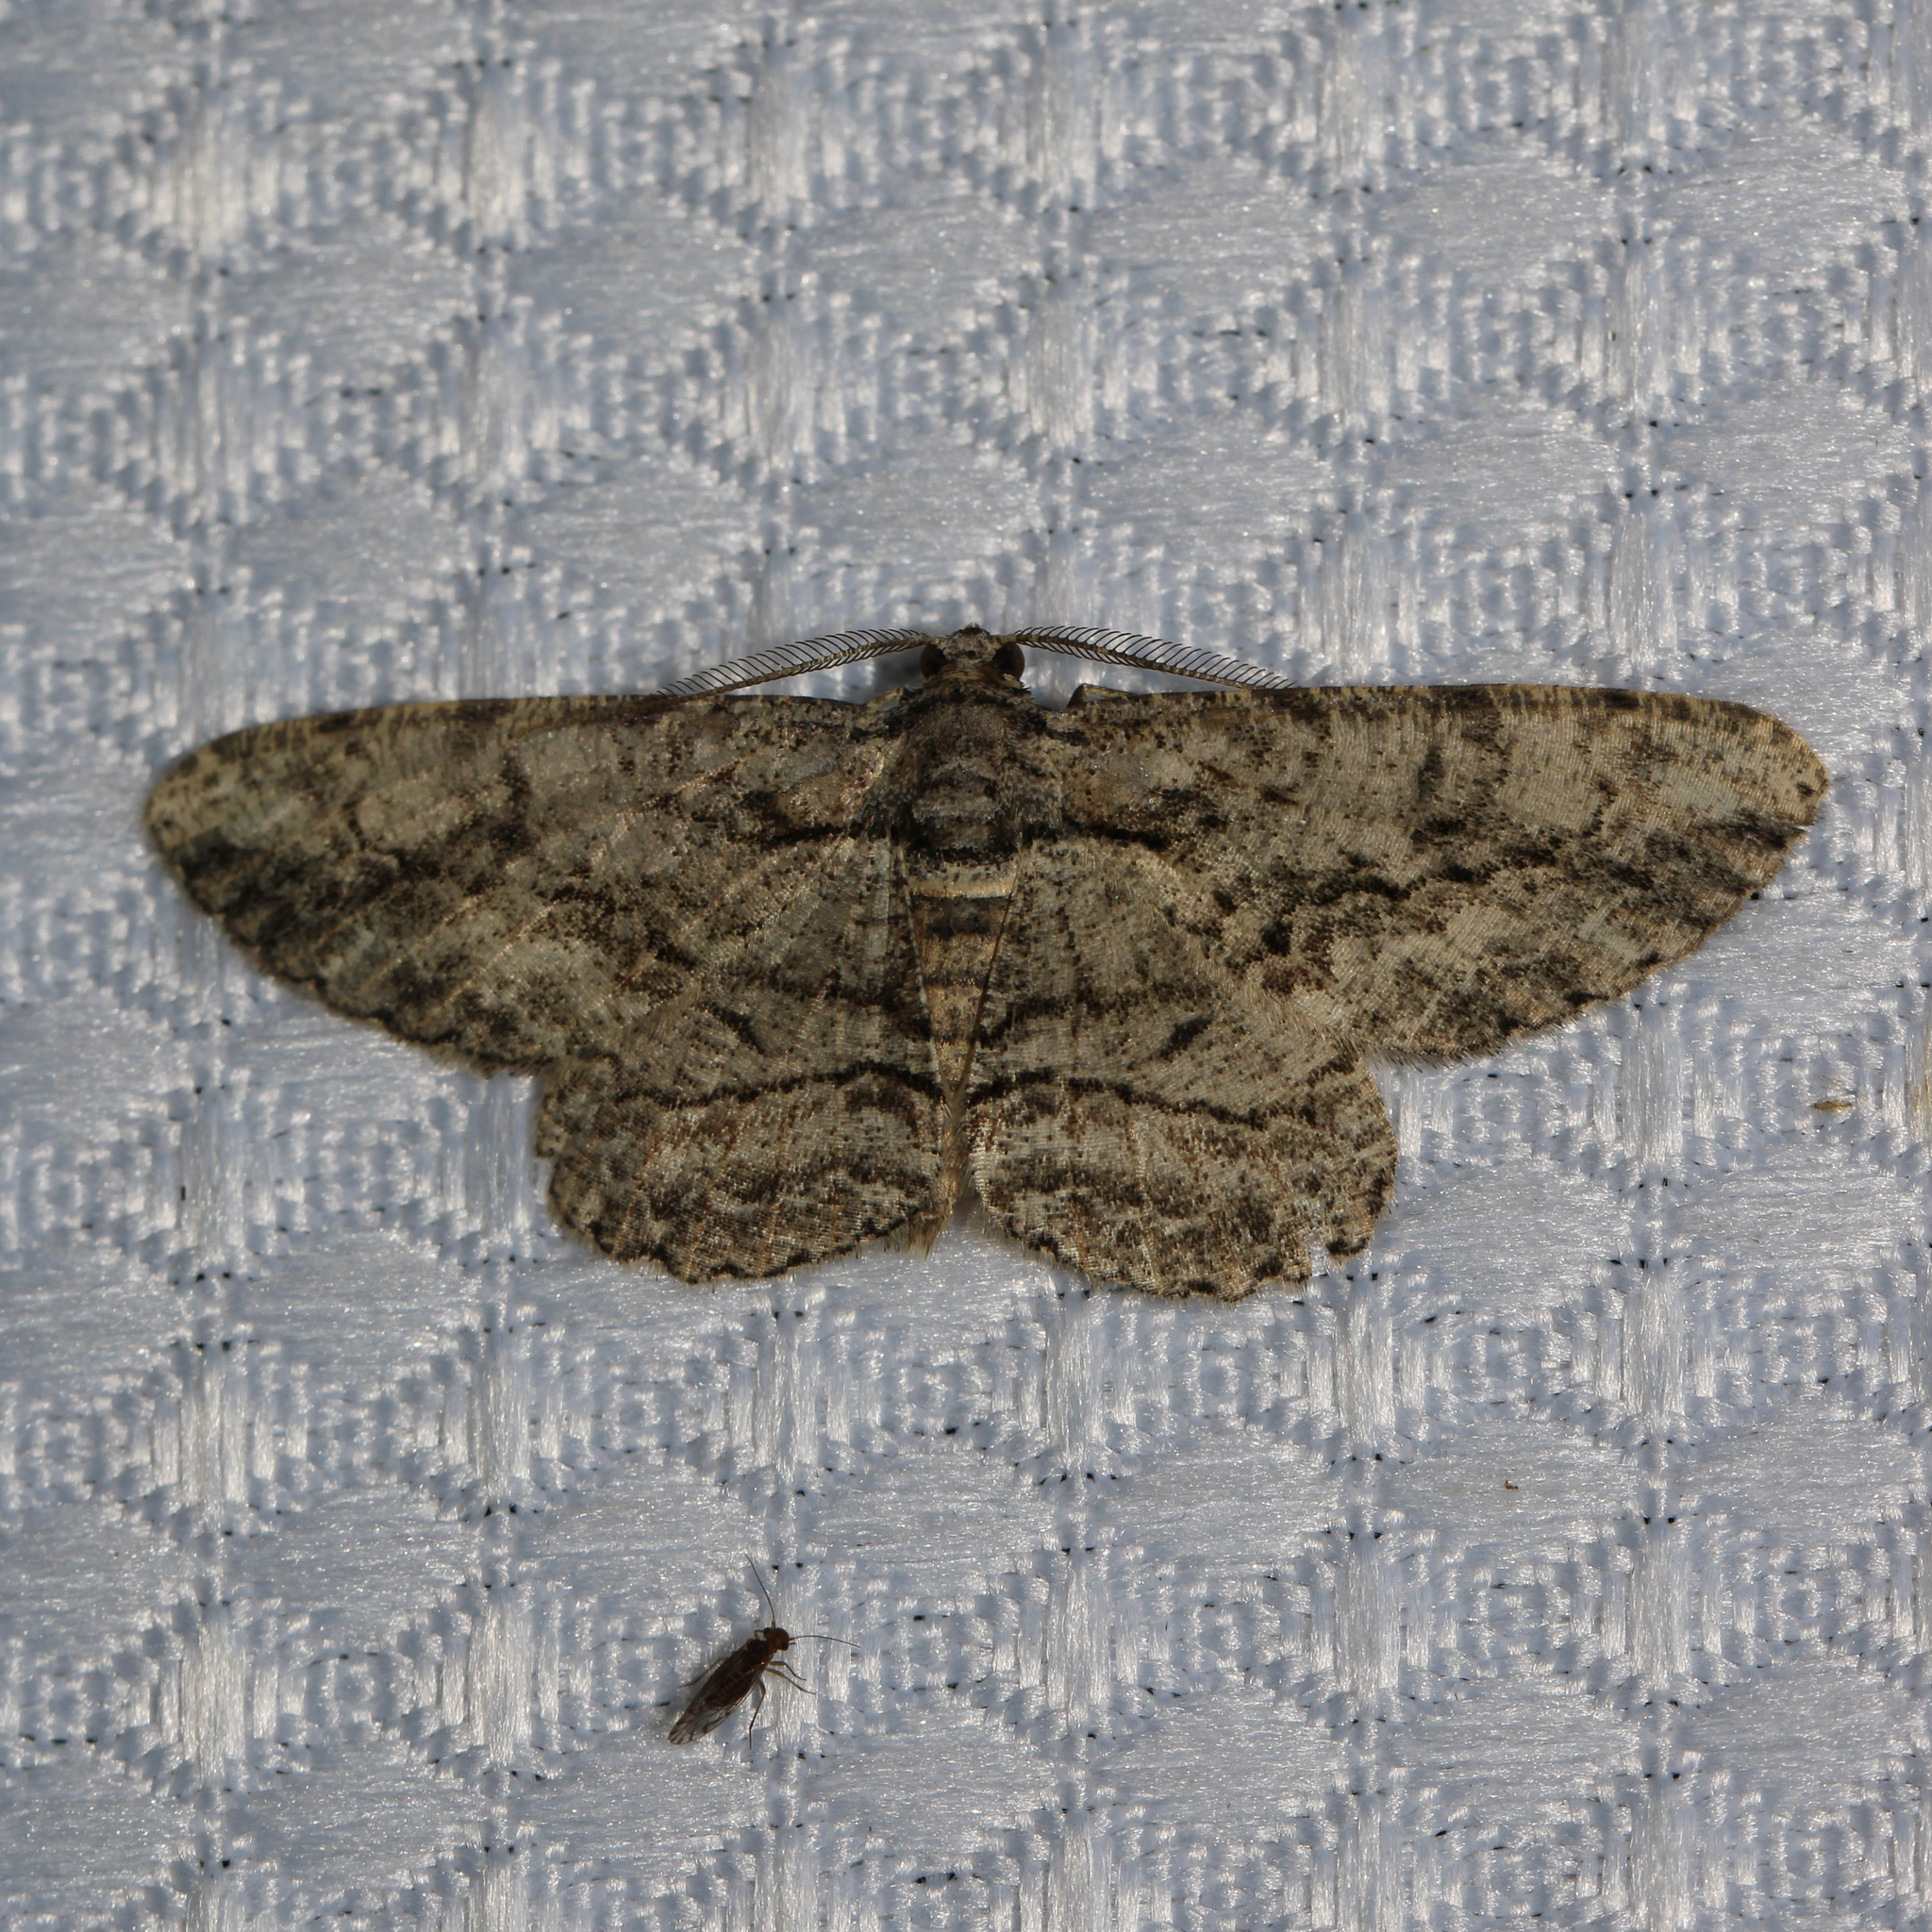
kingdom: Animalia
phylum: Arthropoda
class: Insecta
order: Lepidoptera
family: Geometridae
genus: Anavitrinella
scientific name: Anavitrinella pampinaria
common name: Common gray
